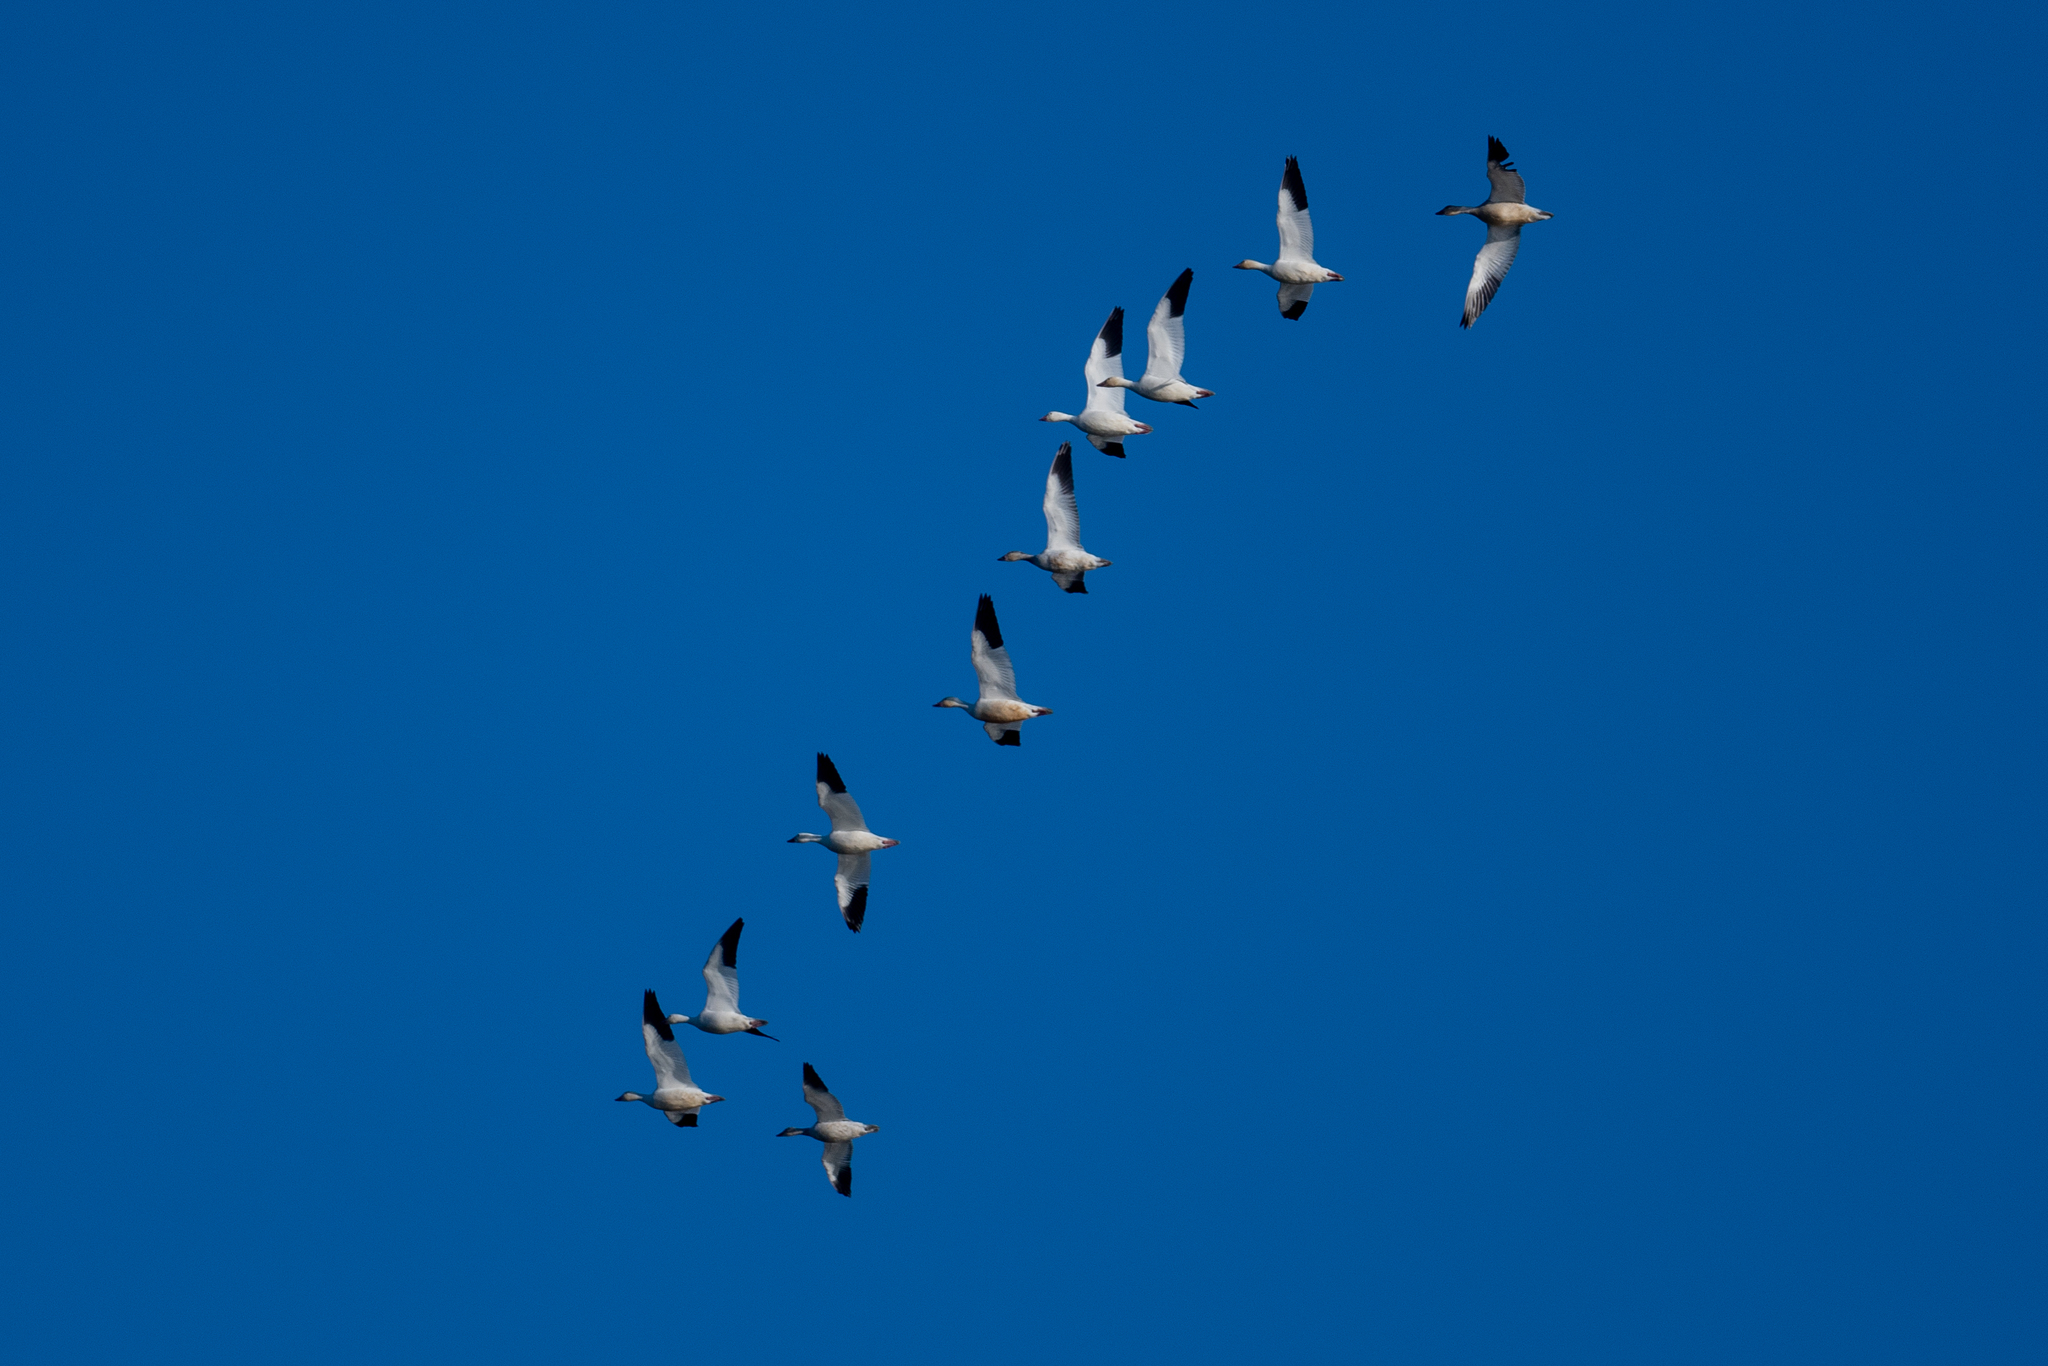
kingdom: Animalia
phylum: Chordata
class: Aves
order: Anseriformes
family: Anatidae
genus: Anser
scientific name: Anser caerulescens
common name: Snow goose
